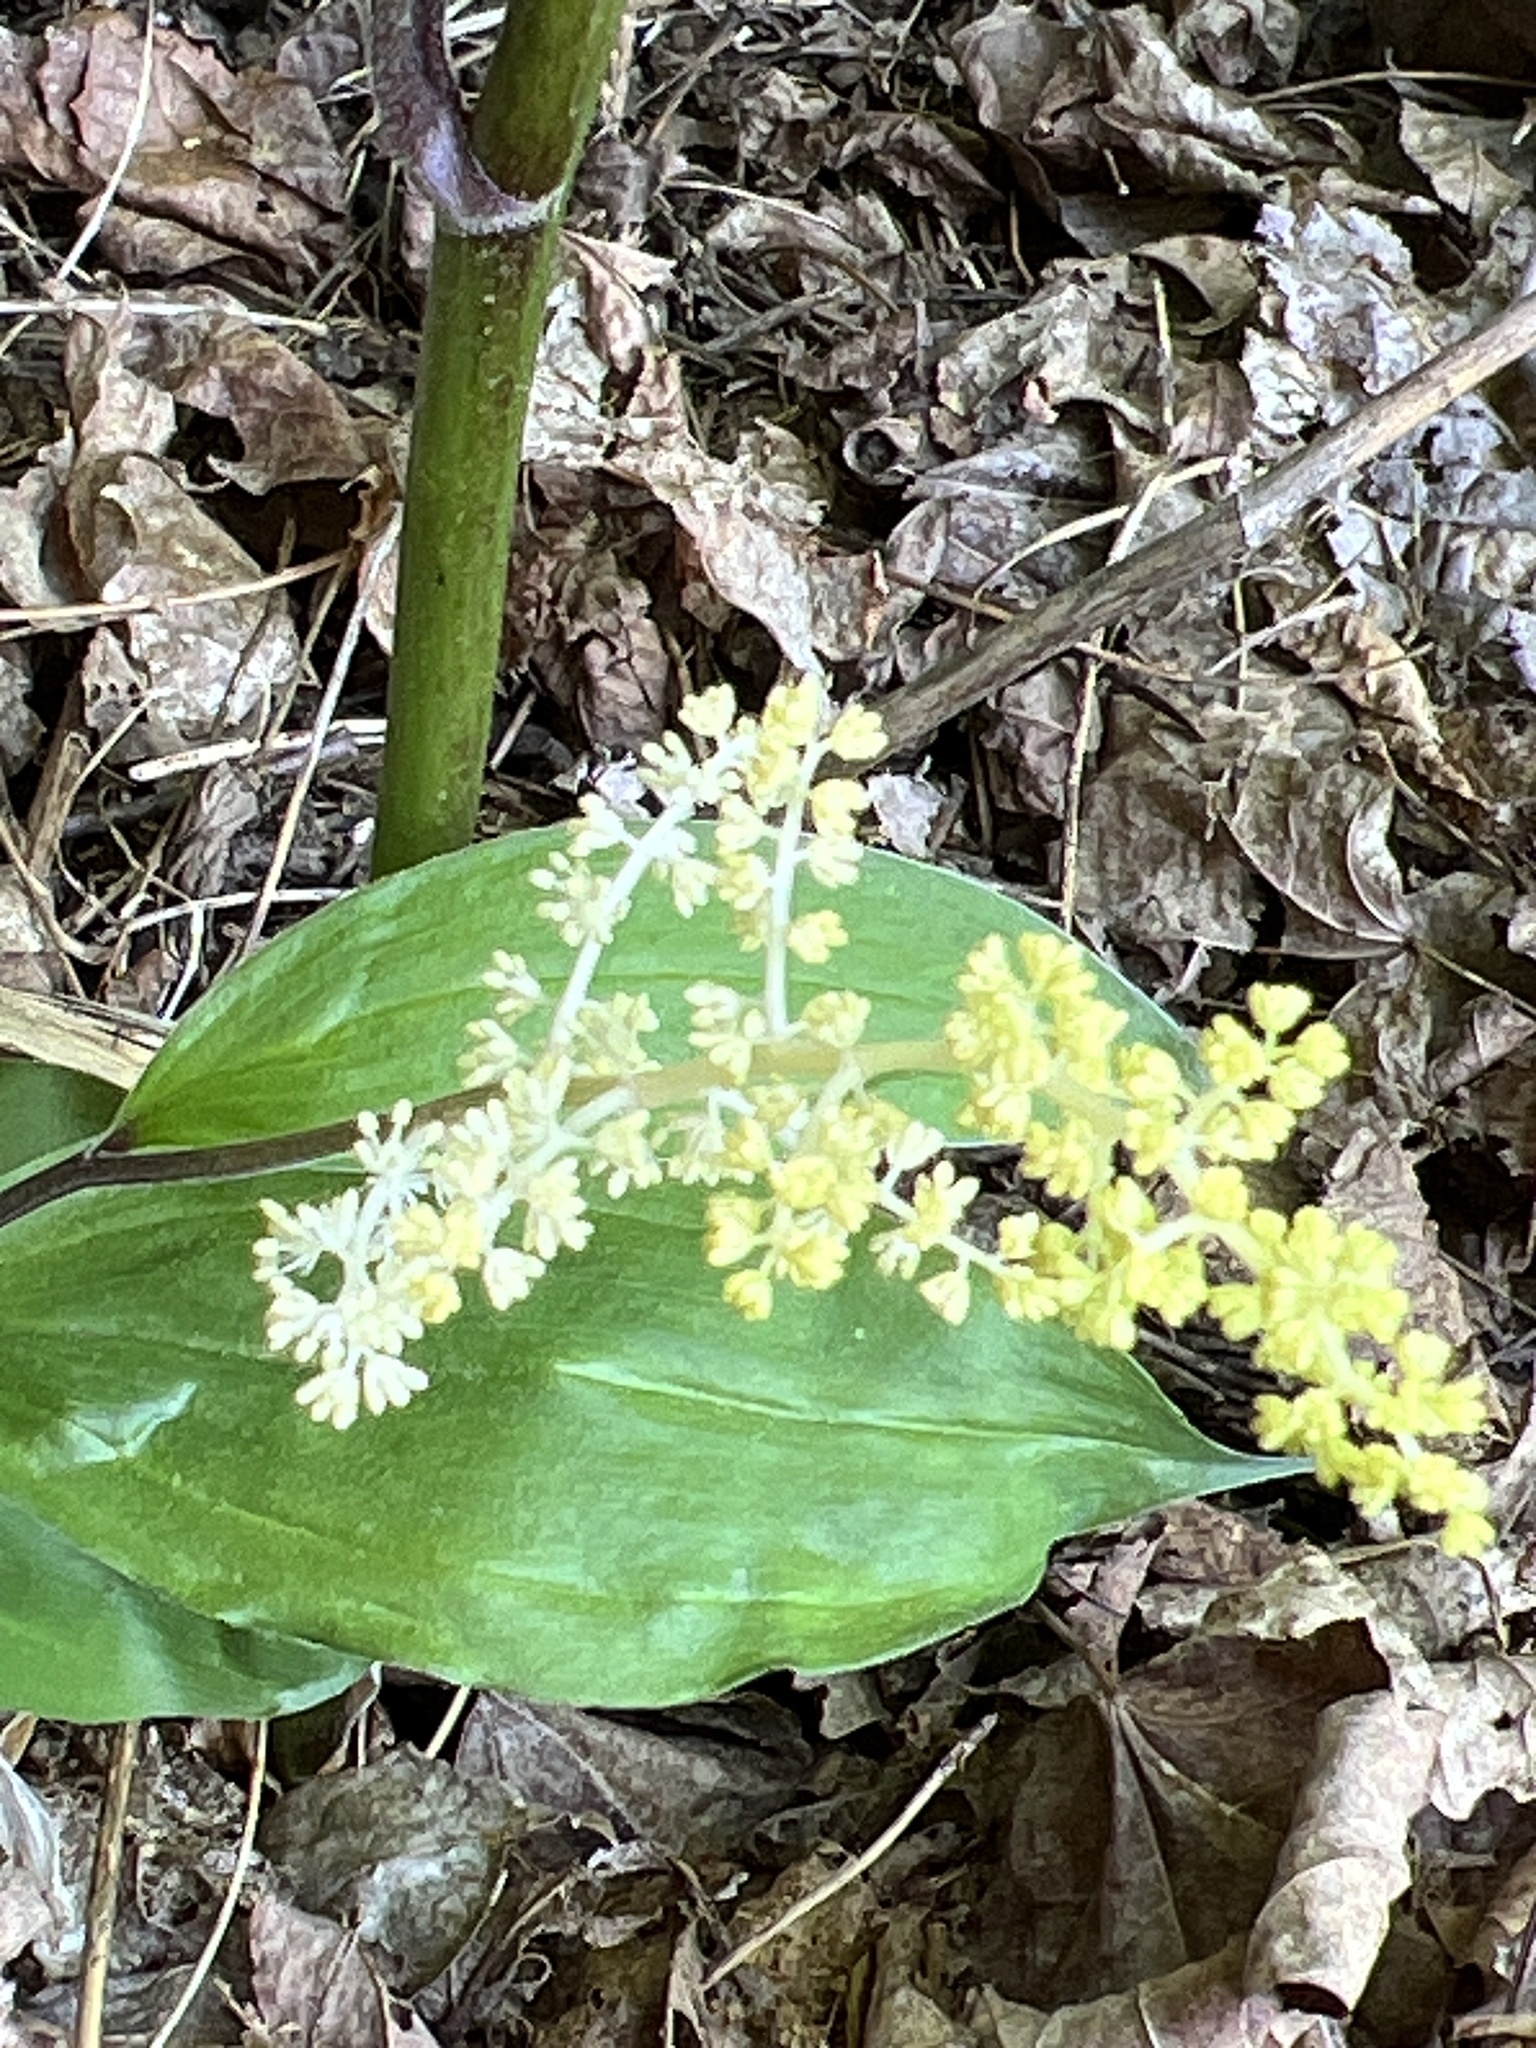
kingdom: Plantae
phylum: Tracheophyta
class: Liliopsida
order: Asparagales
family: Asparagaceae
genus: Maianthemum
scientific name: Maianthemum racemosum
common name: False spikenard
